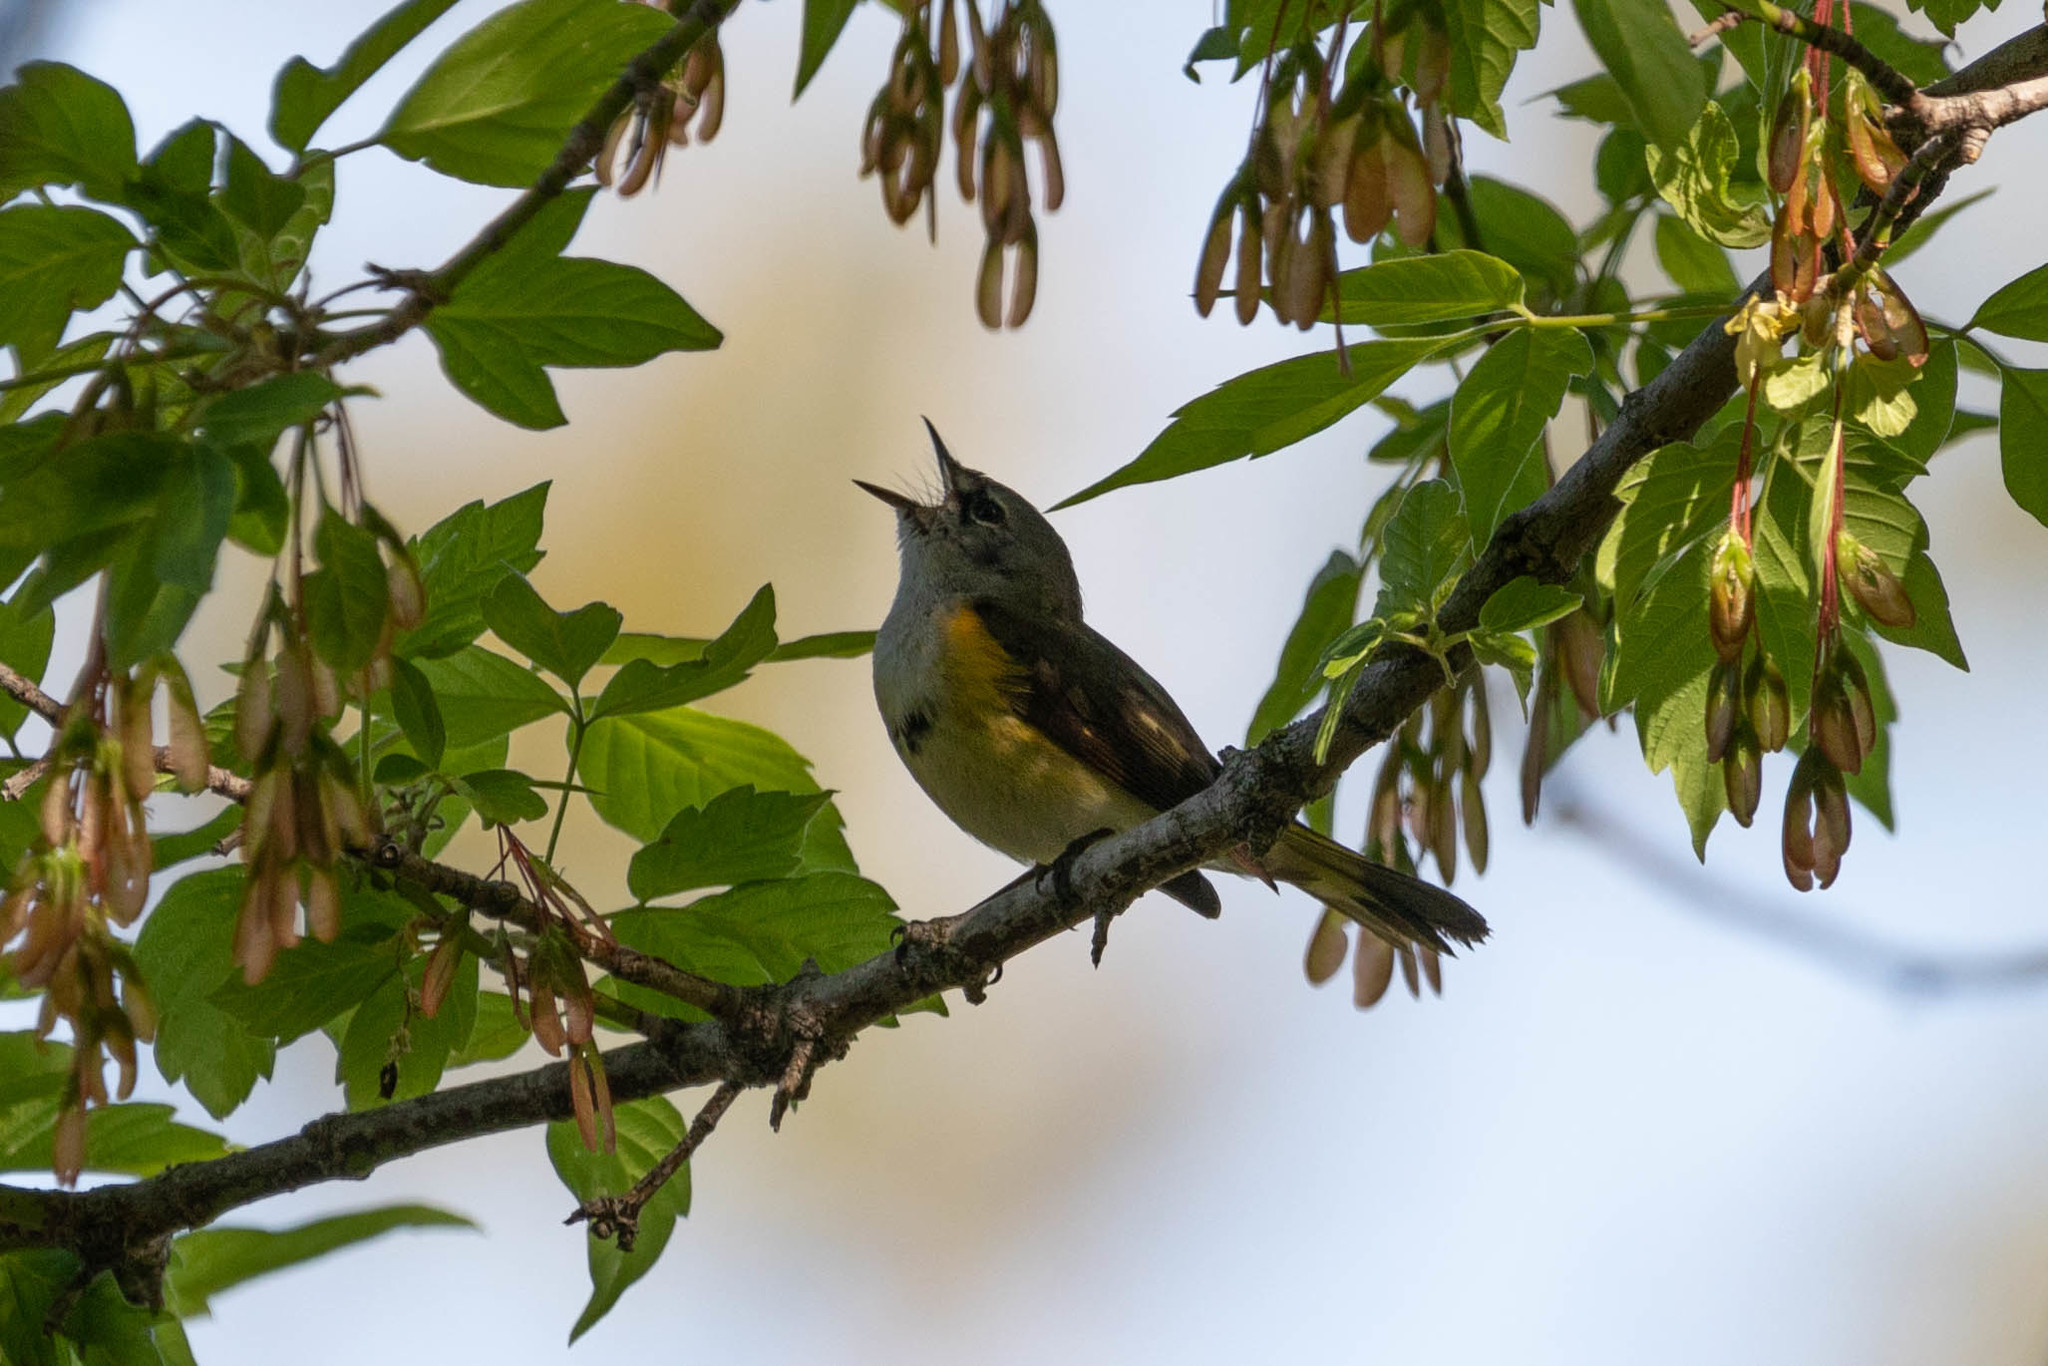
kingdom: Animalia
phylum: Chordata
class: Aves
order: Passeriformes
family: Parulidae
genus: Setophaga
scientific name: Setophaga ruticilla
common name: American redstart
